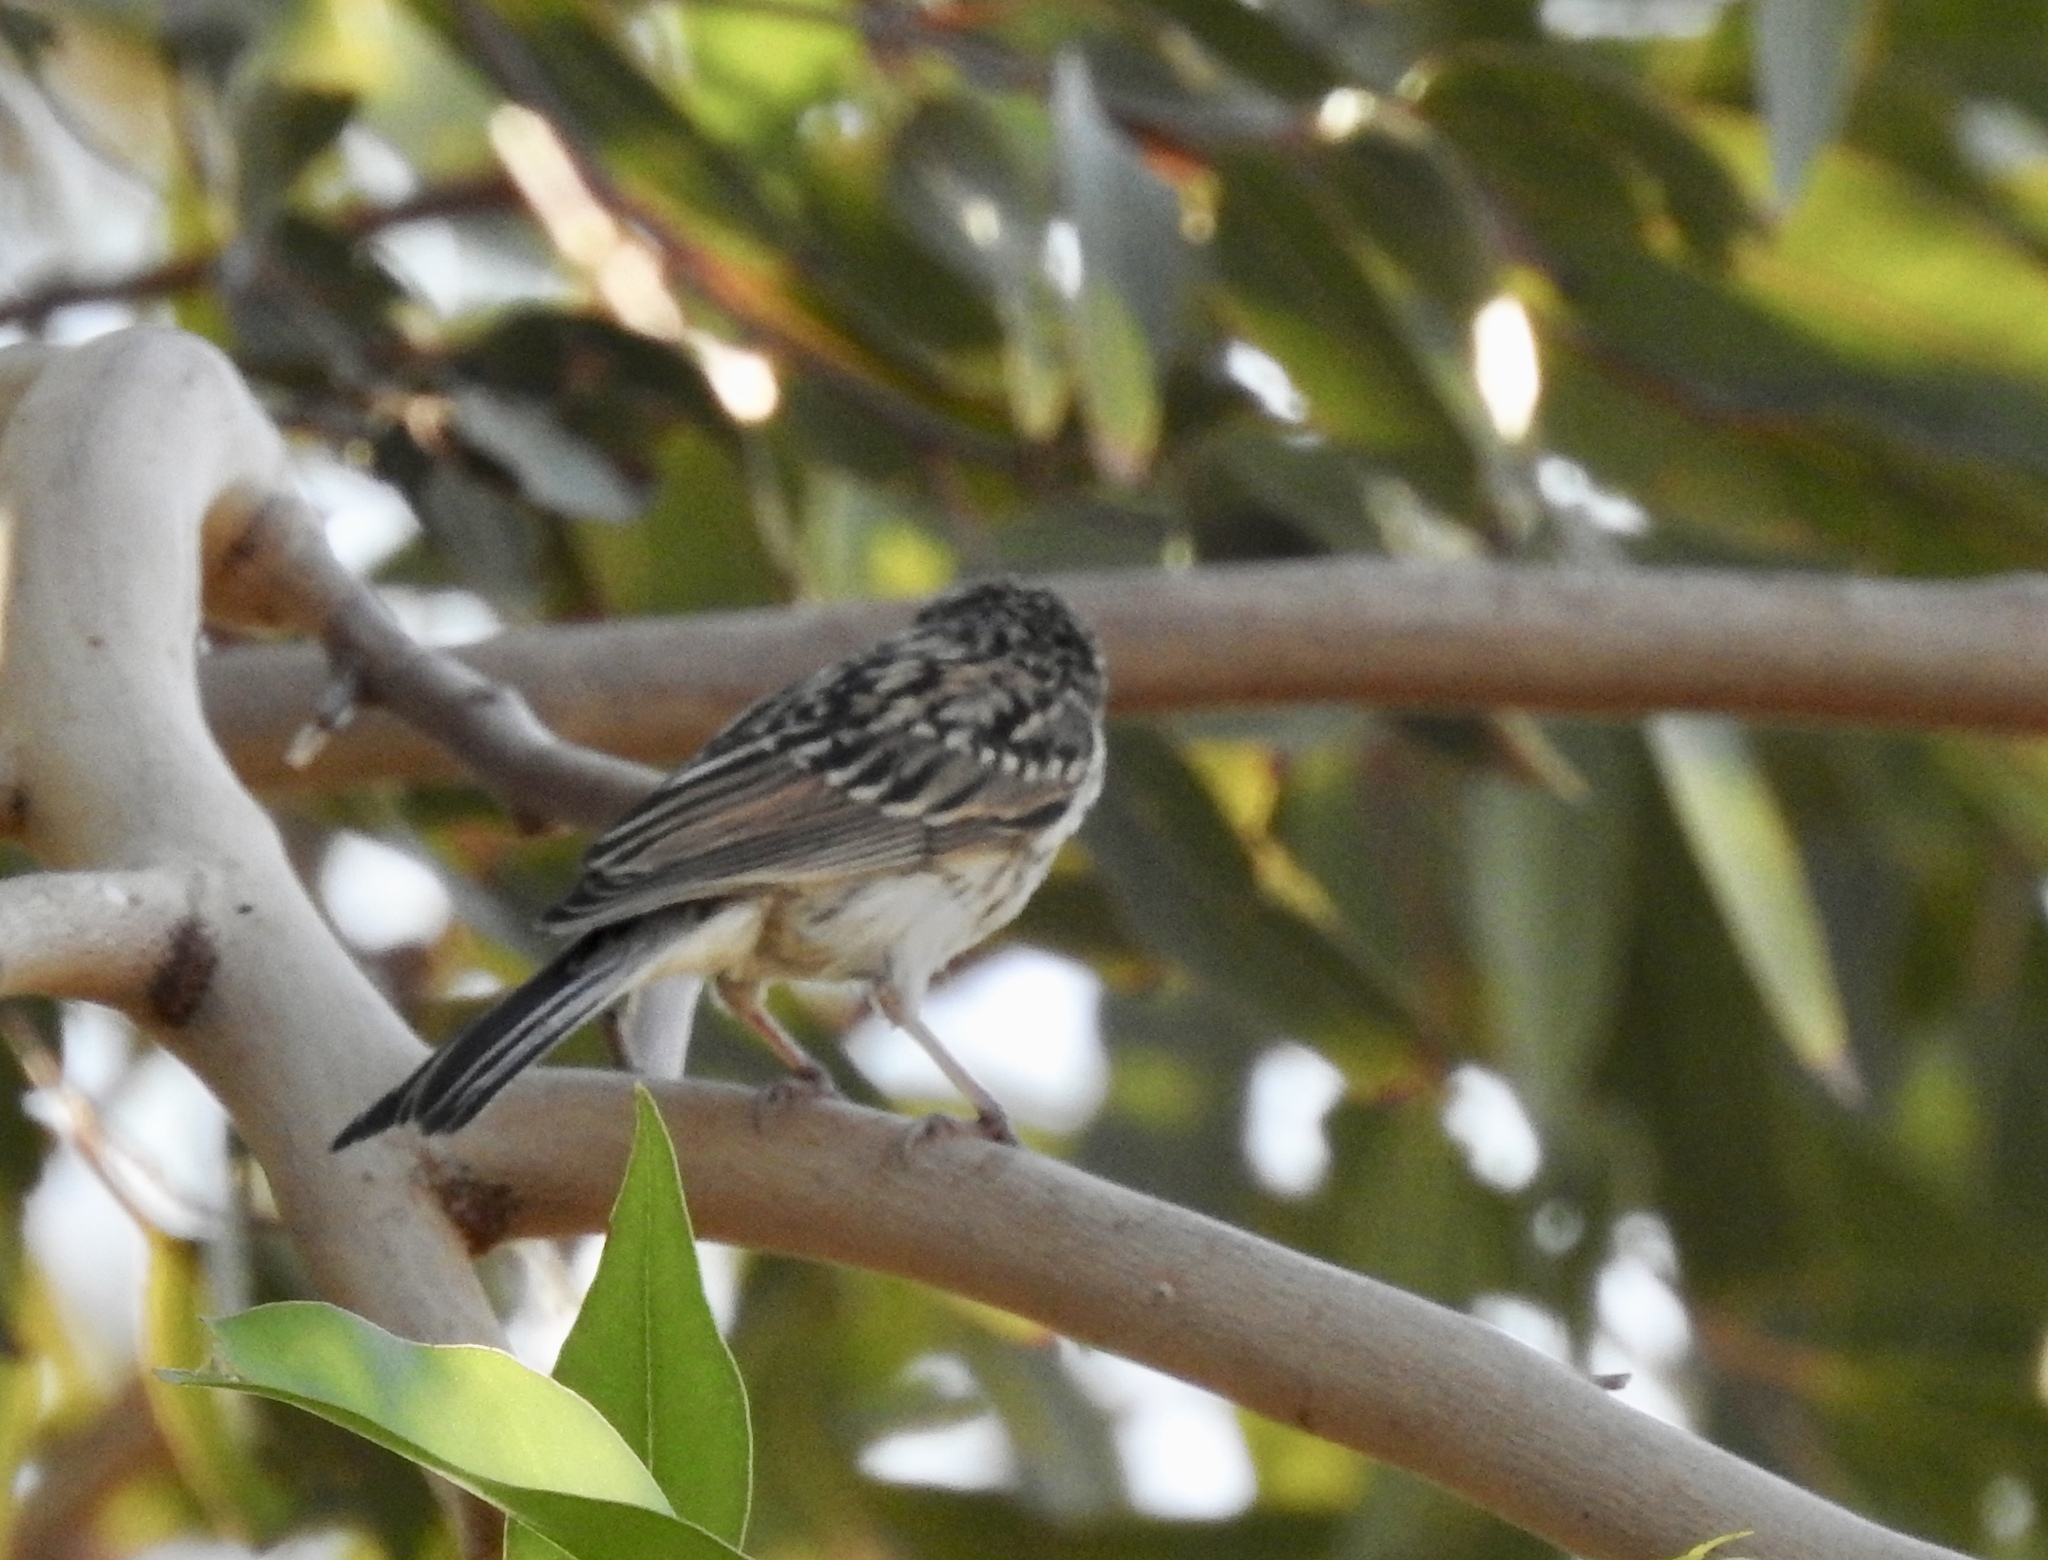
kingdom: Animalia
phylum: Chordata
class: Aves
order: Passeriformes
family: Passerellidae
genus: Spizella
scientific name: Spizella passerina
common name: Chipping sparrow
